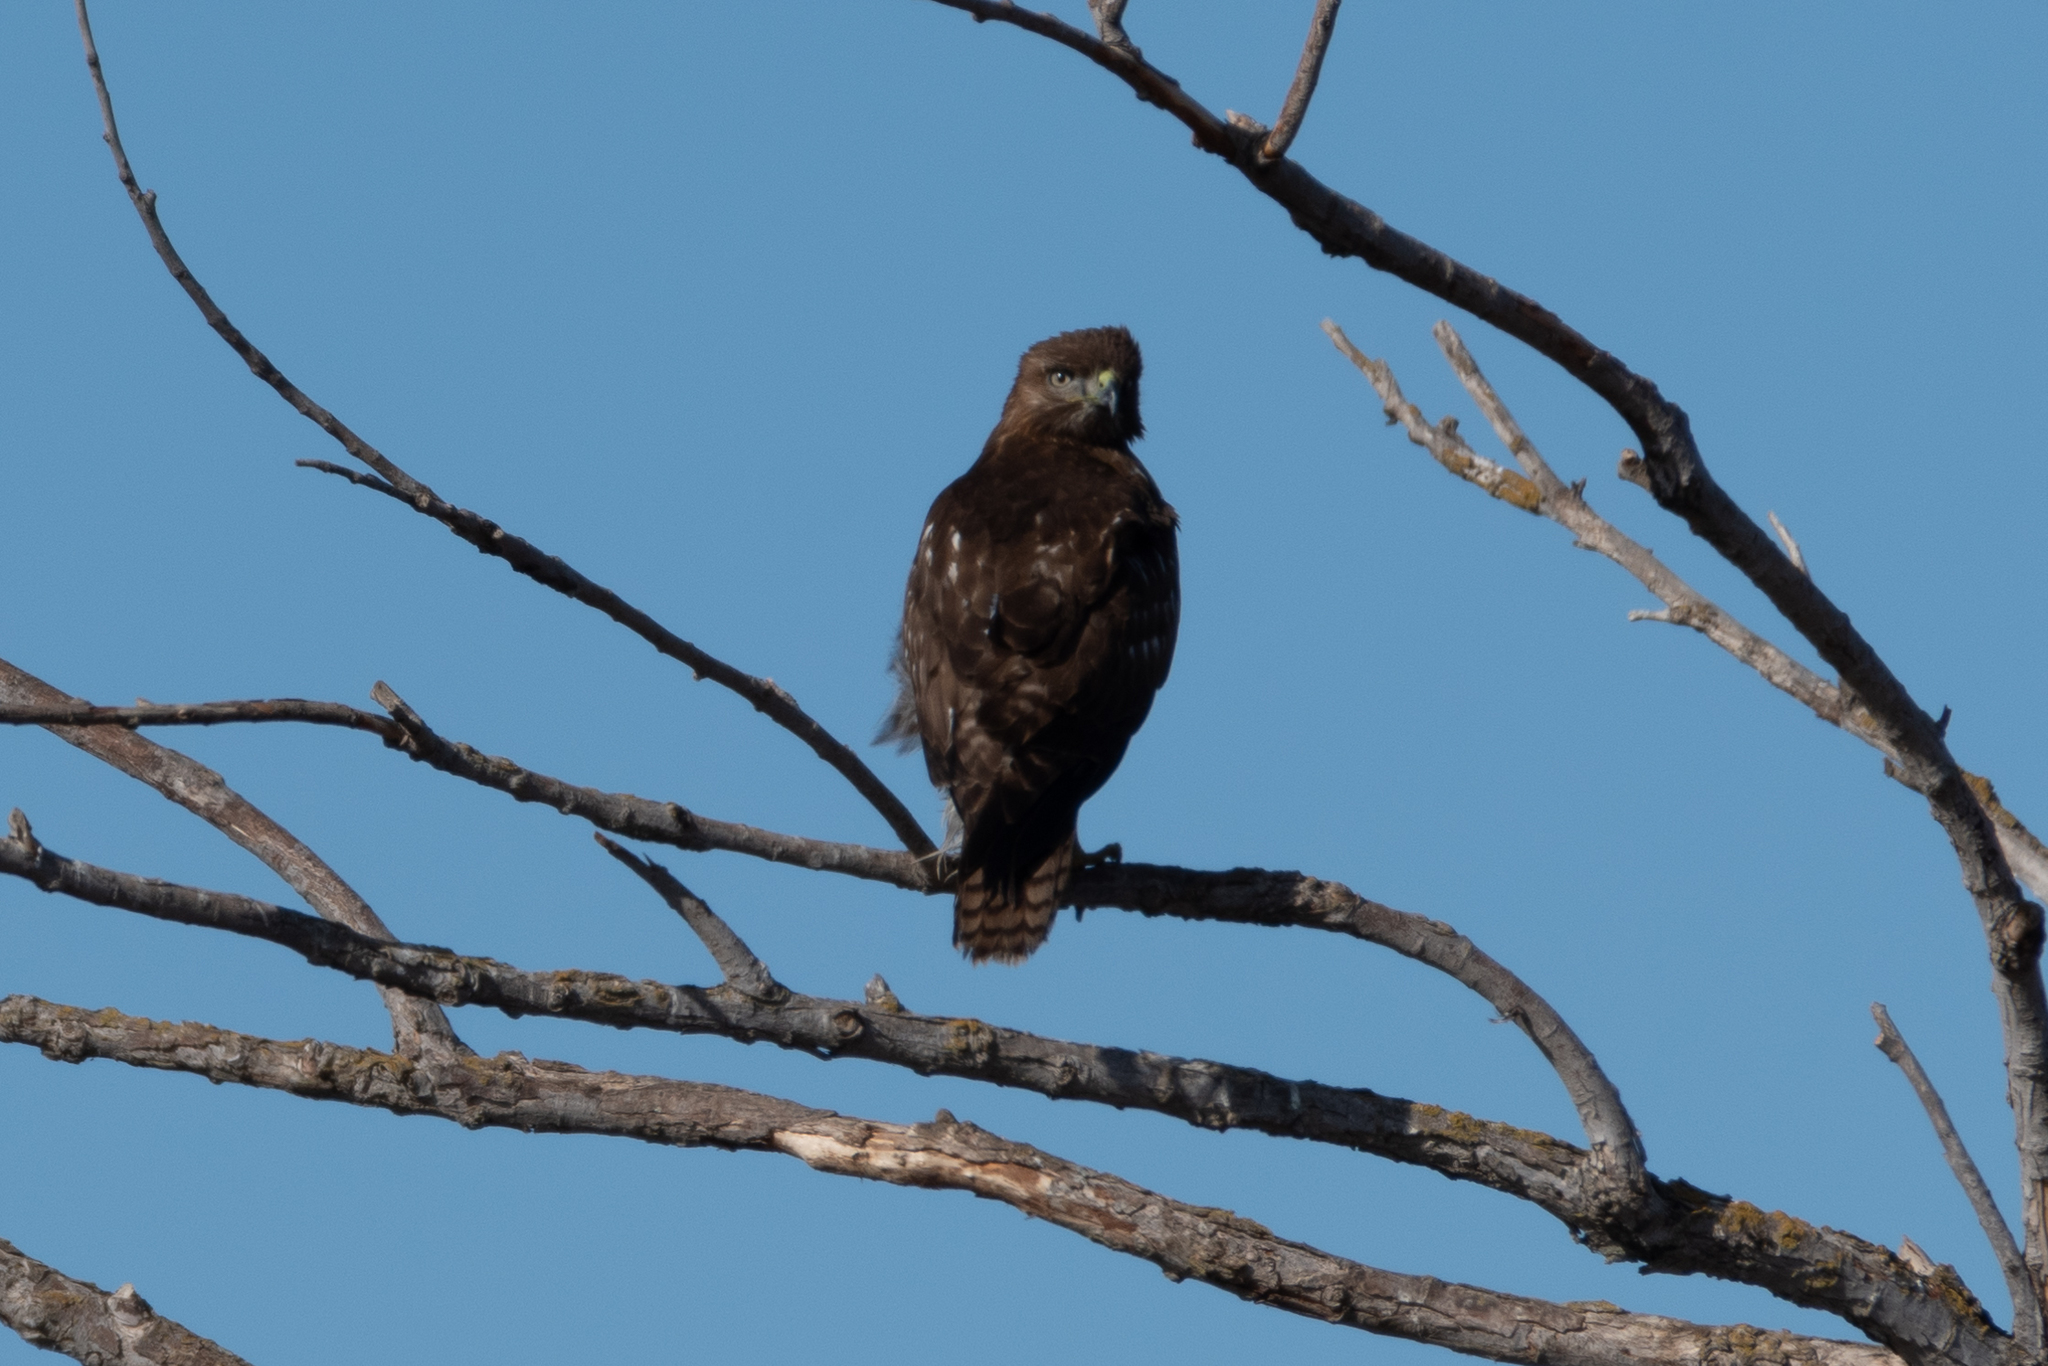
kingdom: Animalia
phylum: Chordata
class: Aves
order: Accipitriformes
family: Accipitridae
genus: Buteo
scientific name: Buteo jamaicensis
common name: Red-tailed hawk
